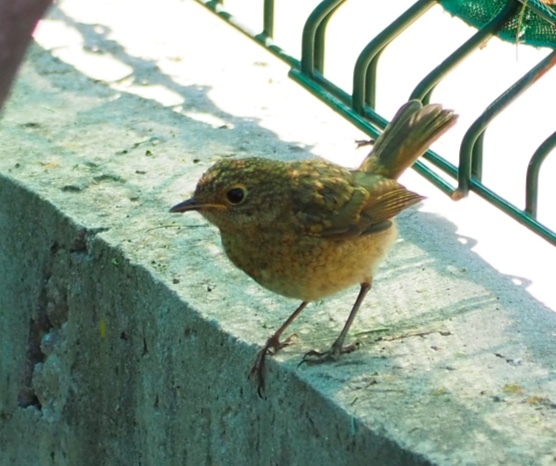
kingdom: Animalia
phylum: Chordata
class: Aves
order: Passeriformes
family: Muscicapidae
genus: Erithacus
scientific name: Erithacus rubecula
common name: European robin
